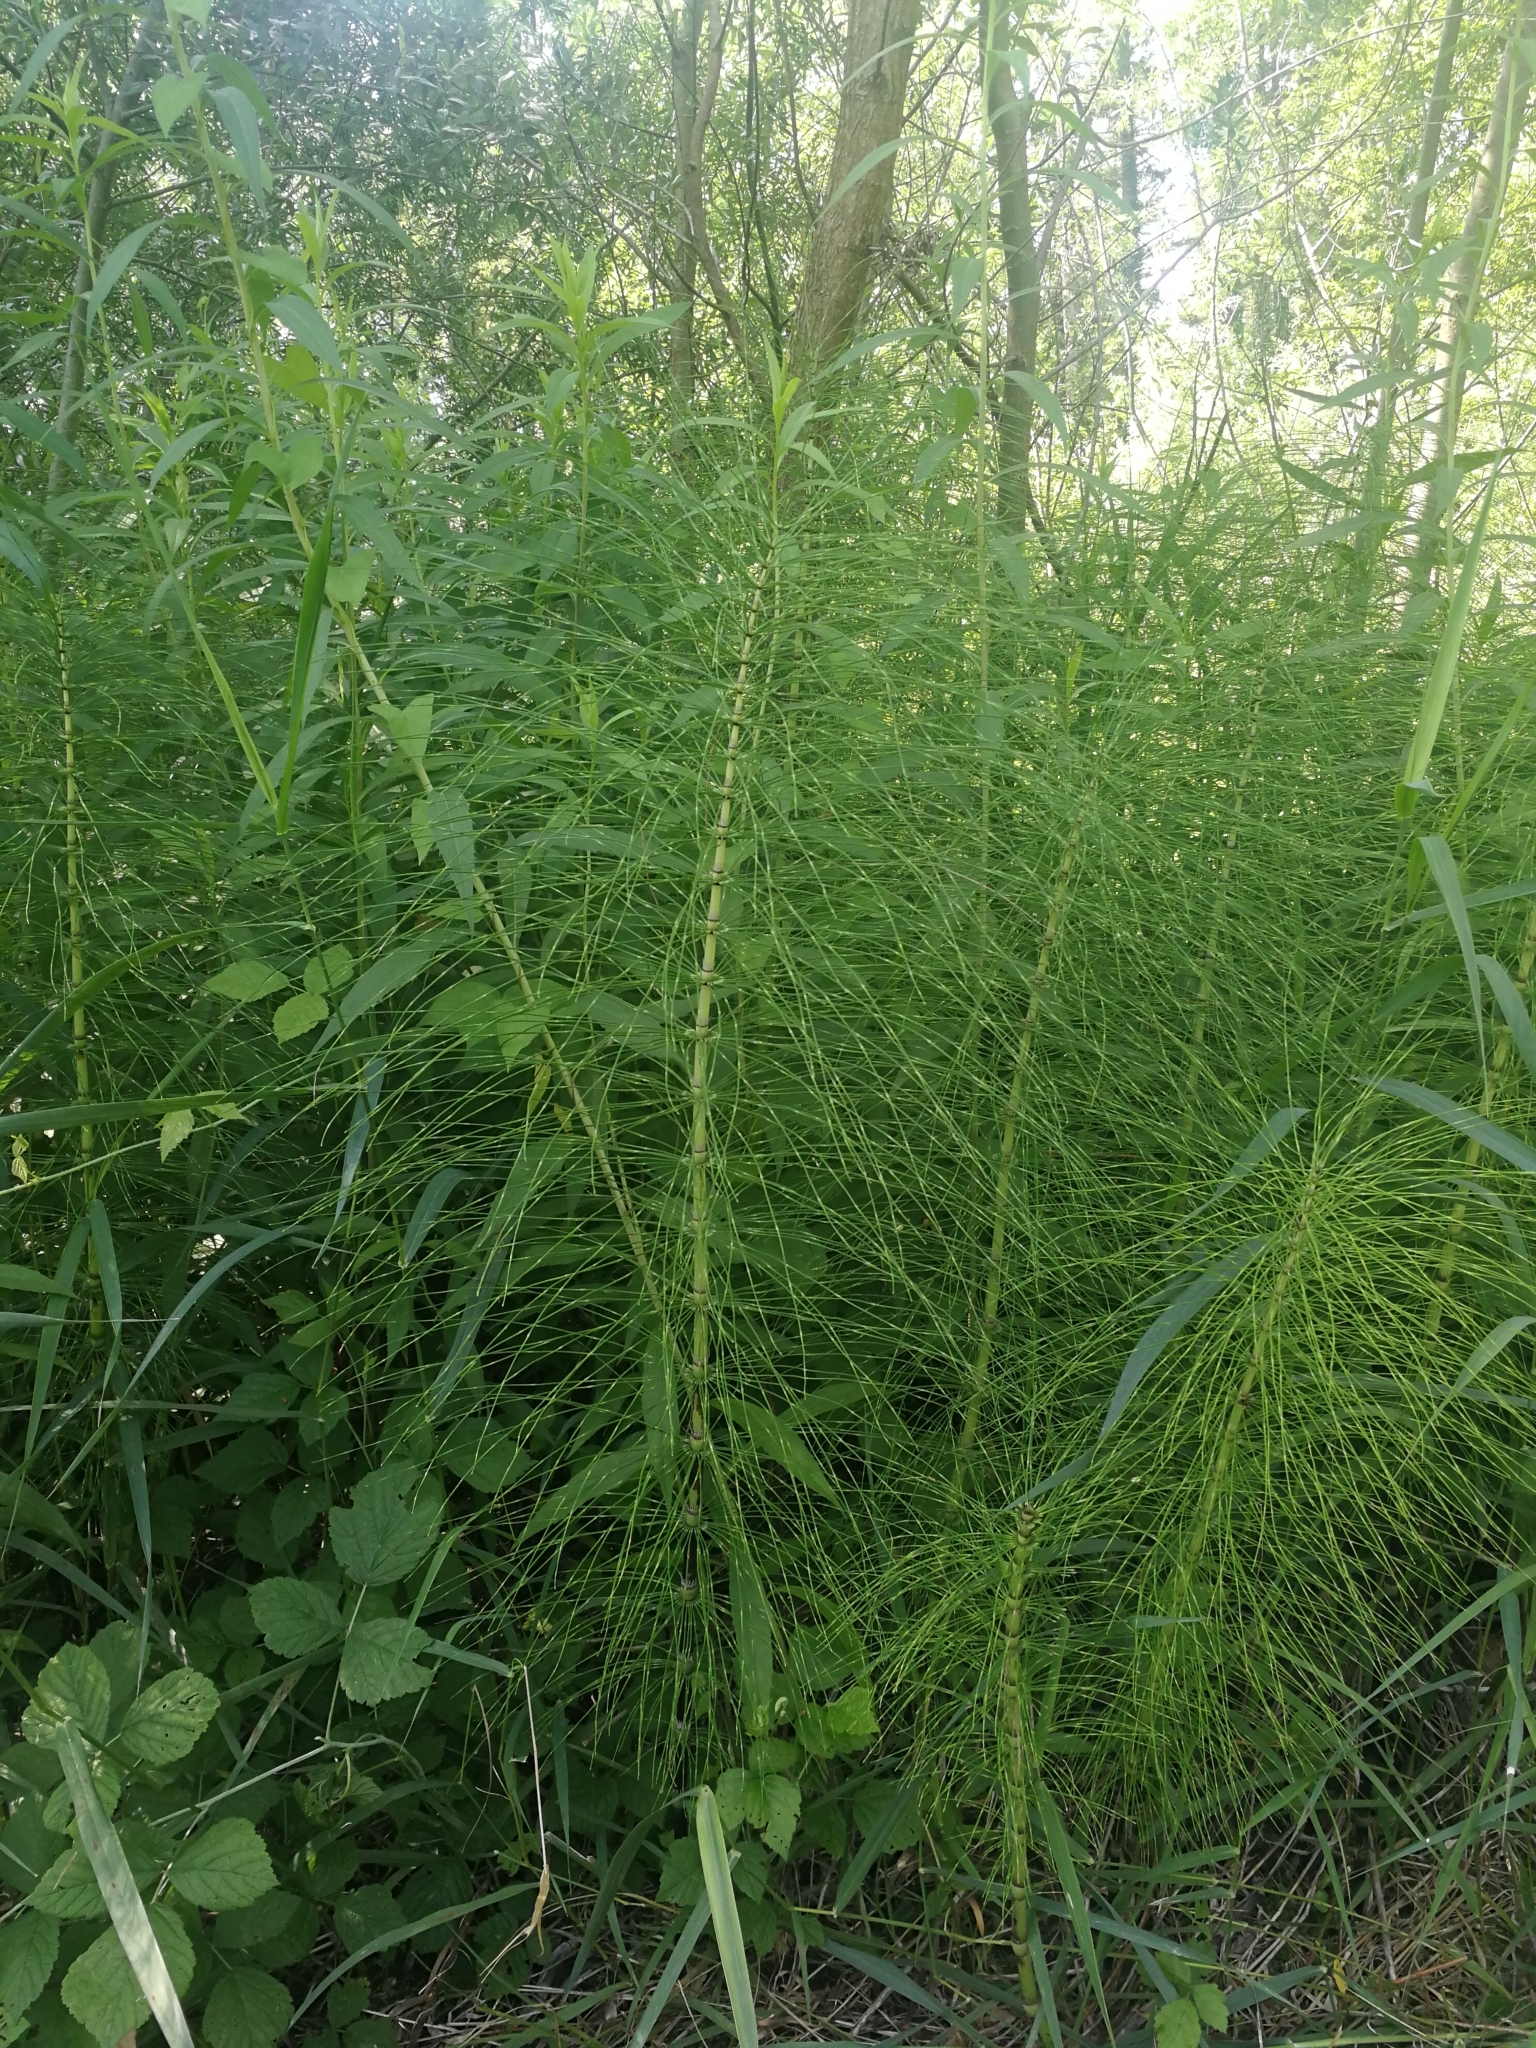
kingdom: Plantae
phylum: Tracheophyta
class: Polypodiopsida
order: Equisetales
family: Equisetaceae
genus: Equisetum
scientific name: Equisetum telmateia
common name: Great horsetail
